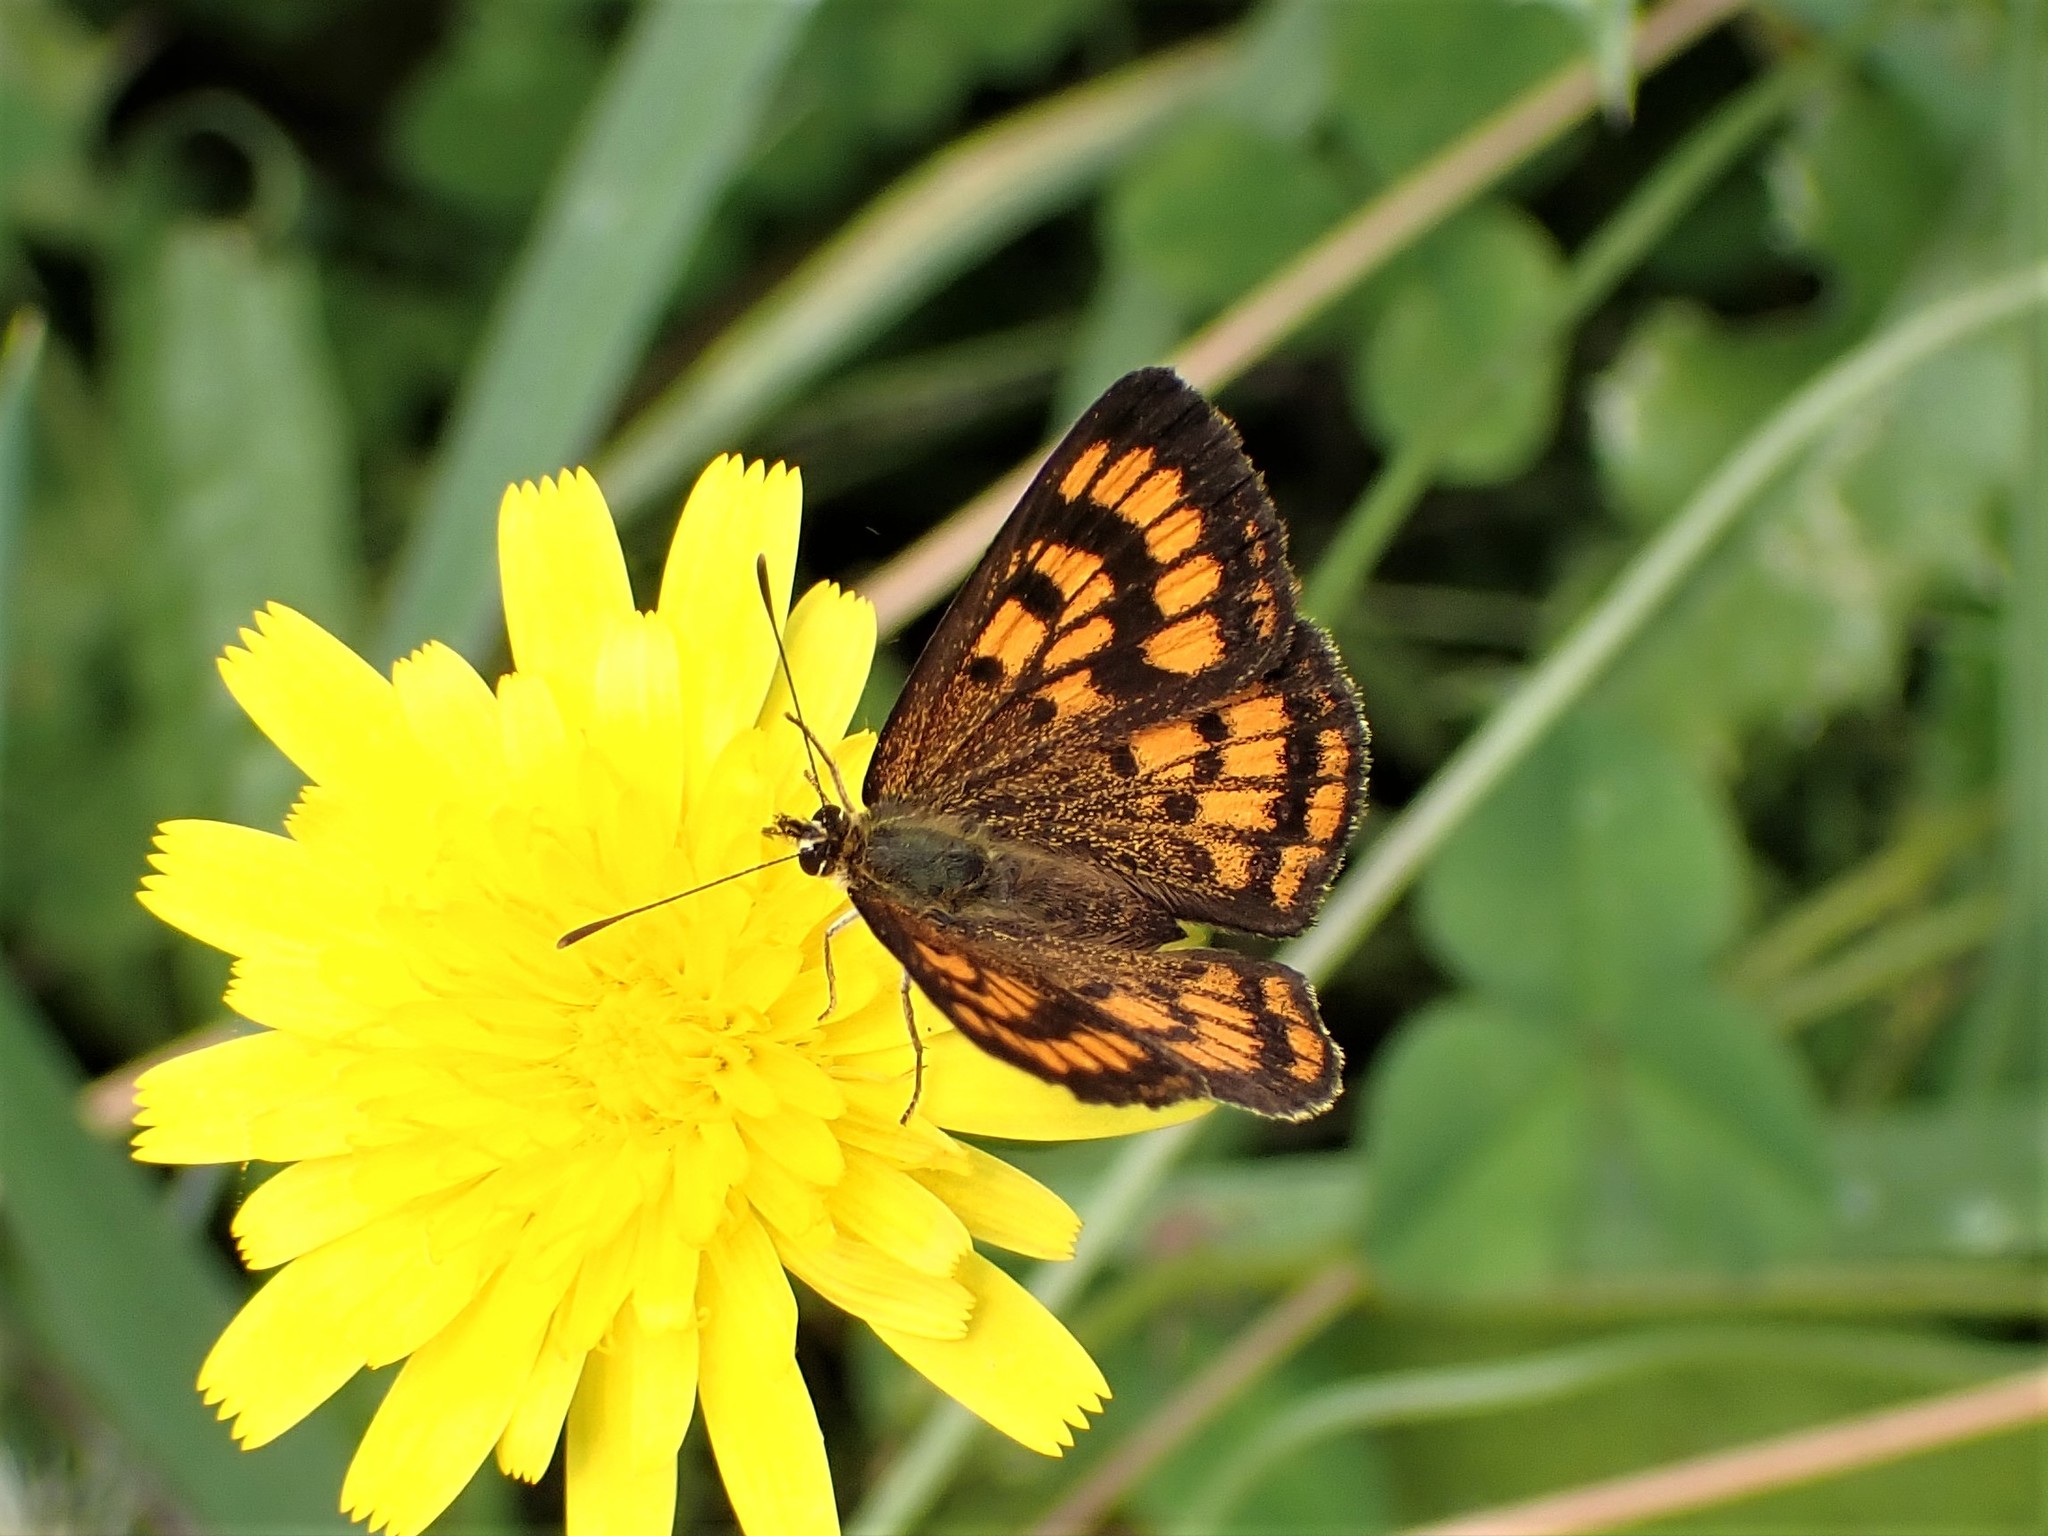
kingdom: Animalia
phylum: Arthropoda
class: Insecta
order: Lepidoptera
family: Lycaenidae
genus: Lycaena
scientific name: Lycaena salustius
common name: North island coastal copper
